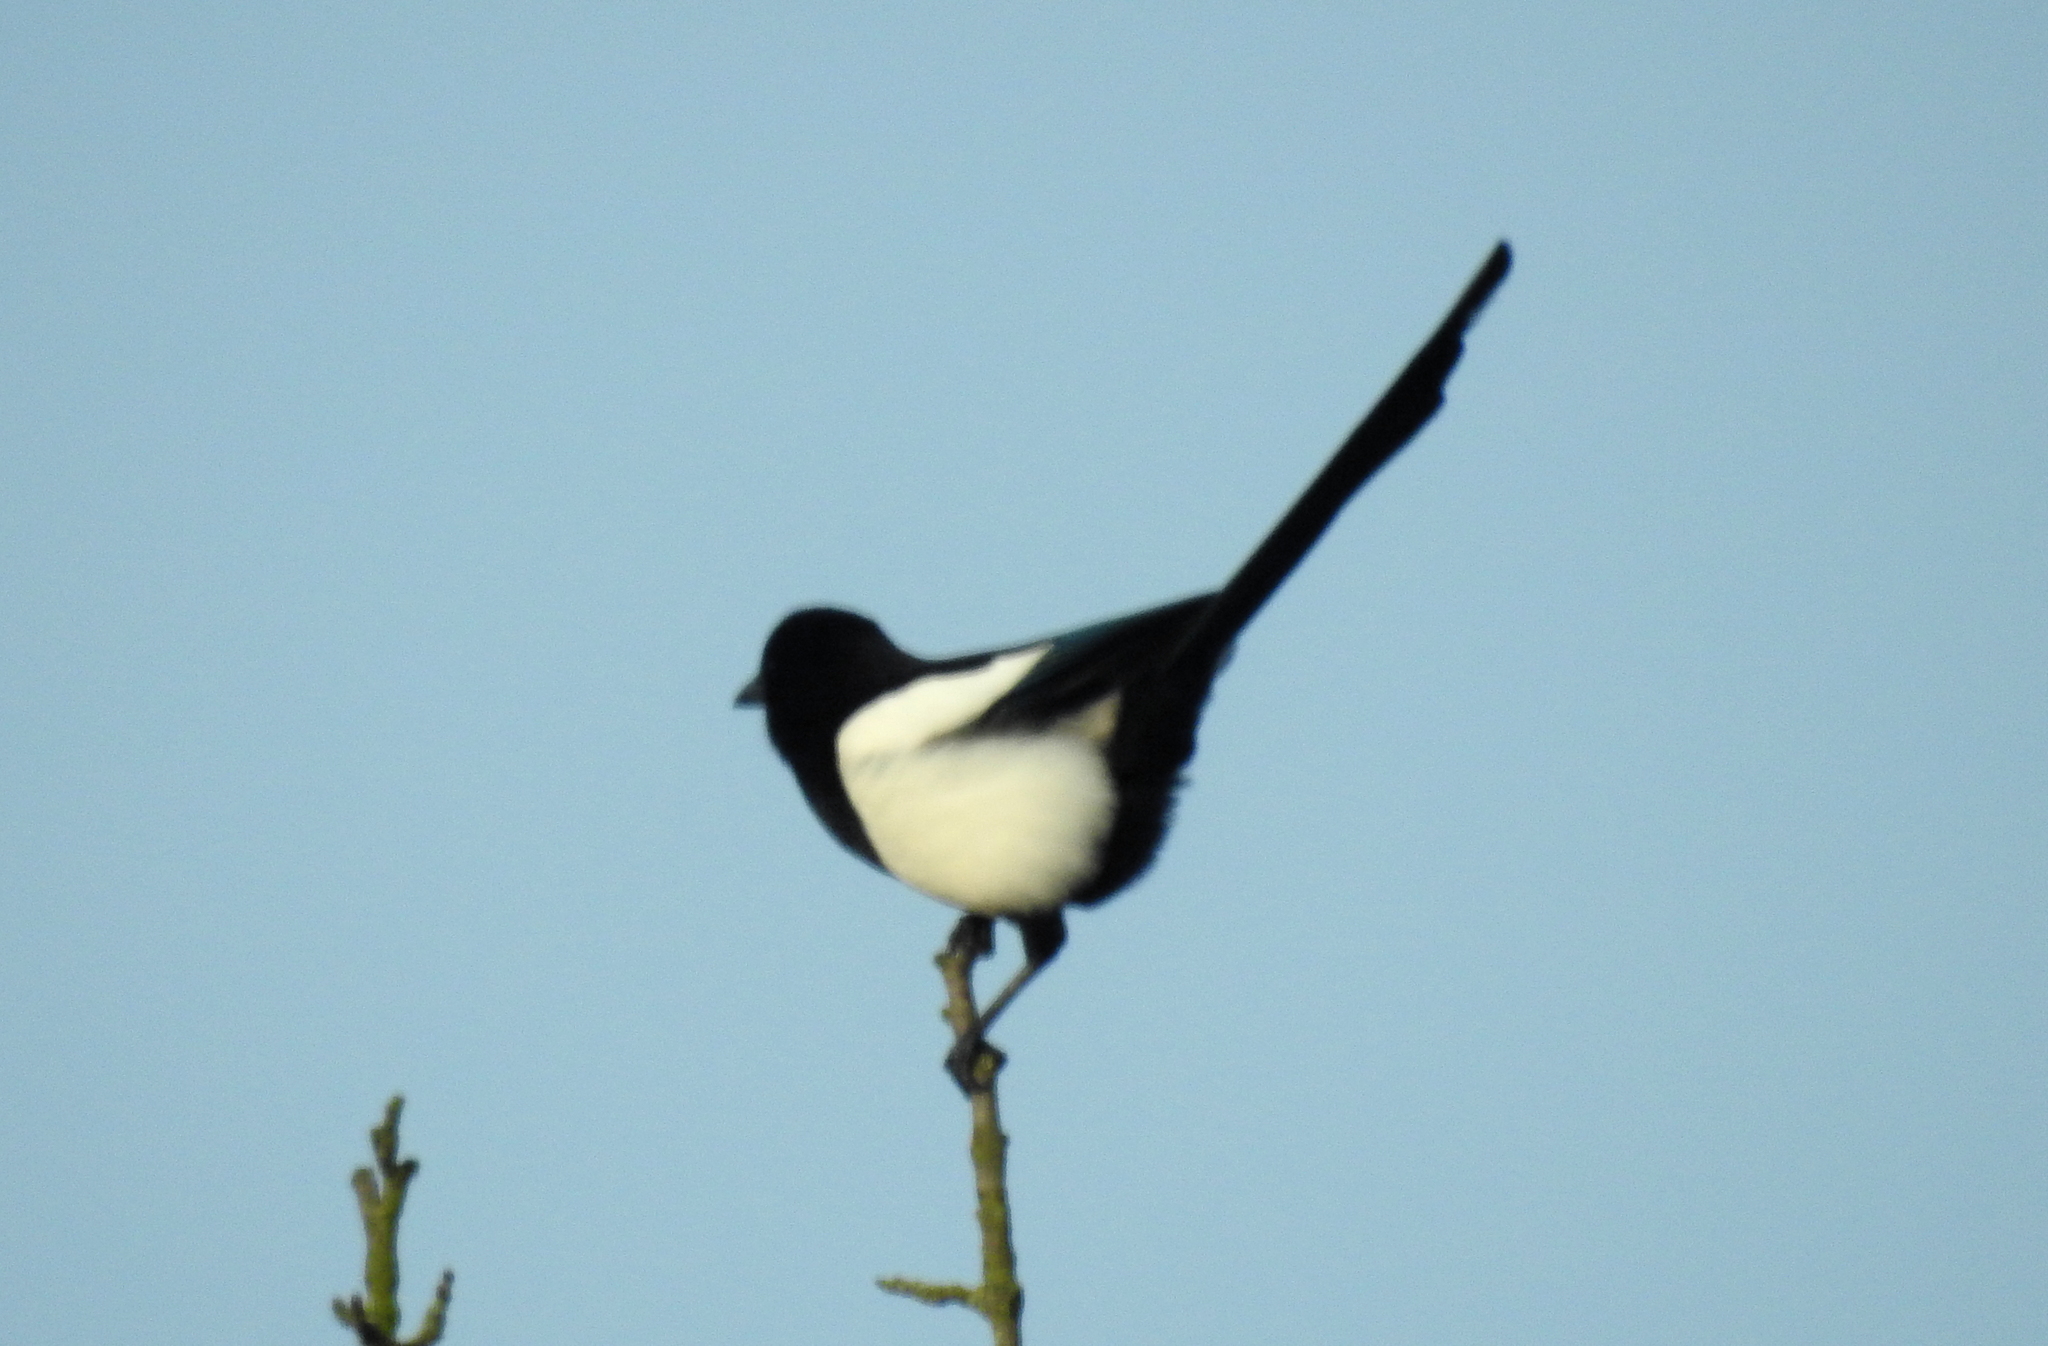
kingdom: Animalia
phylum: Chordata
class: Aves
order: Passeriformes
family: Corvidae
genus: Pica
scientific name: Pica pica
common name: Eurasian magpie
